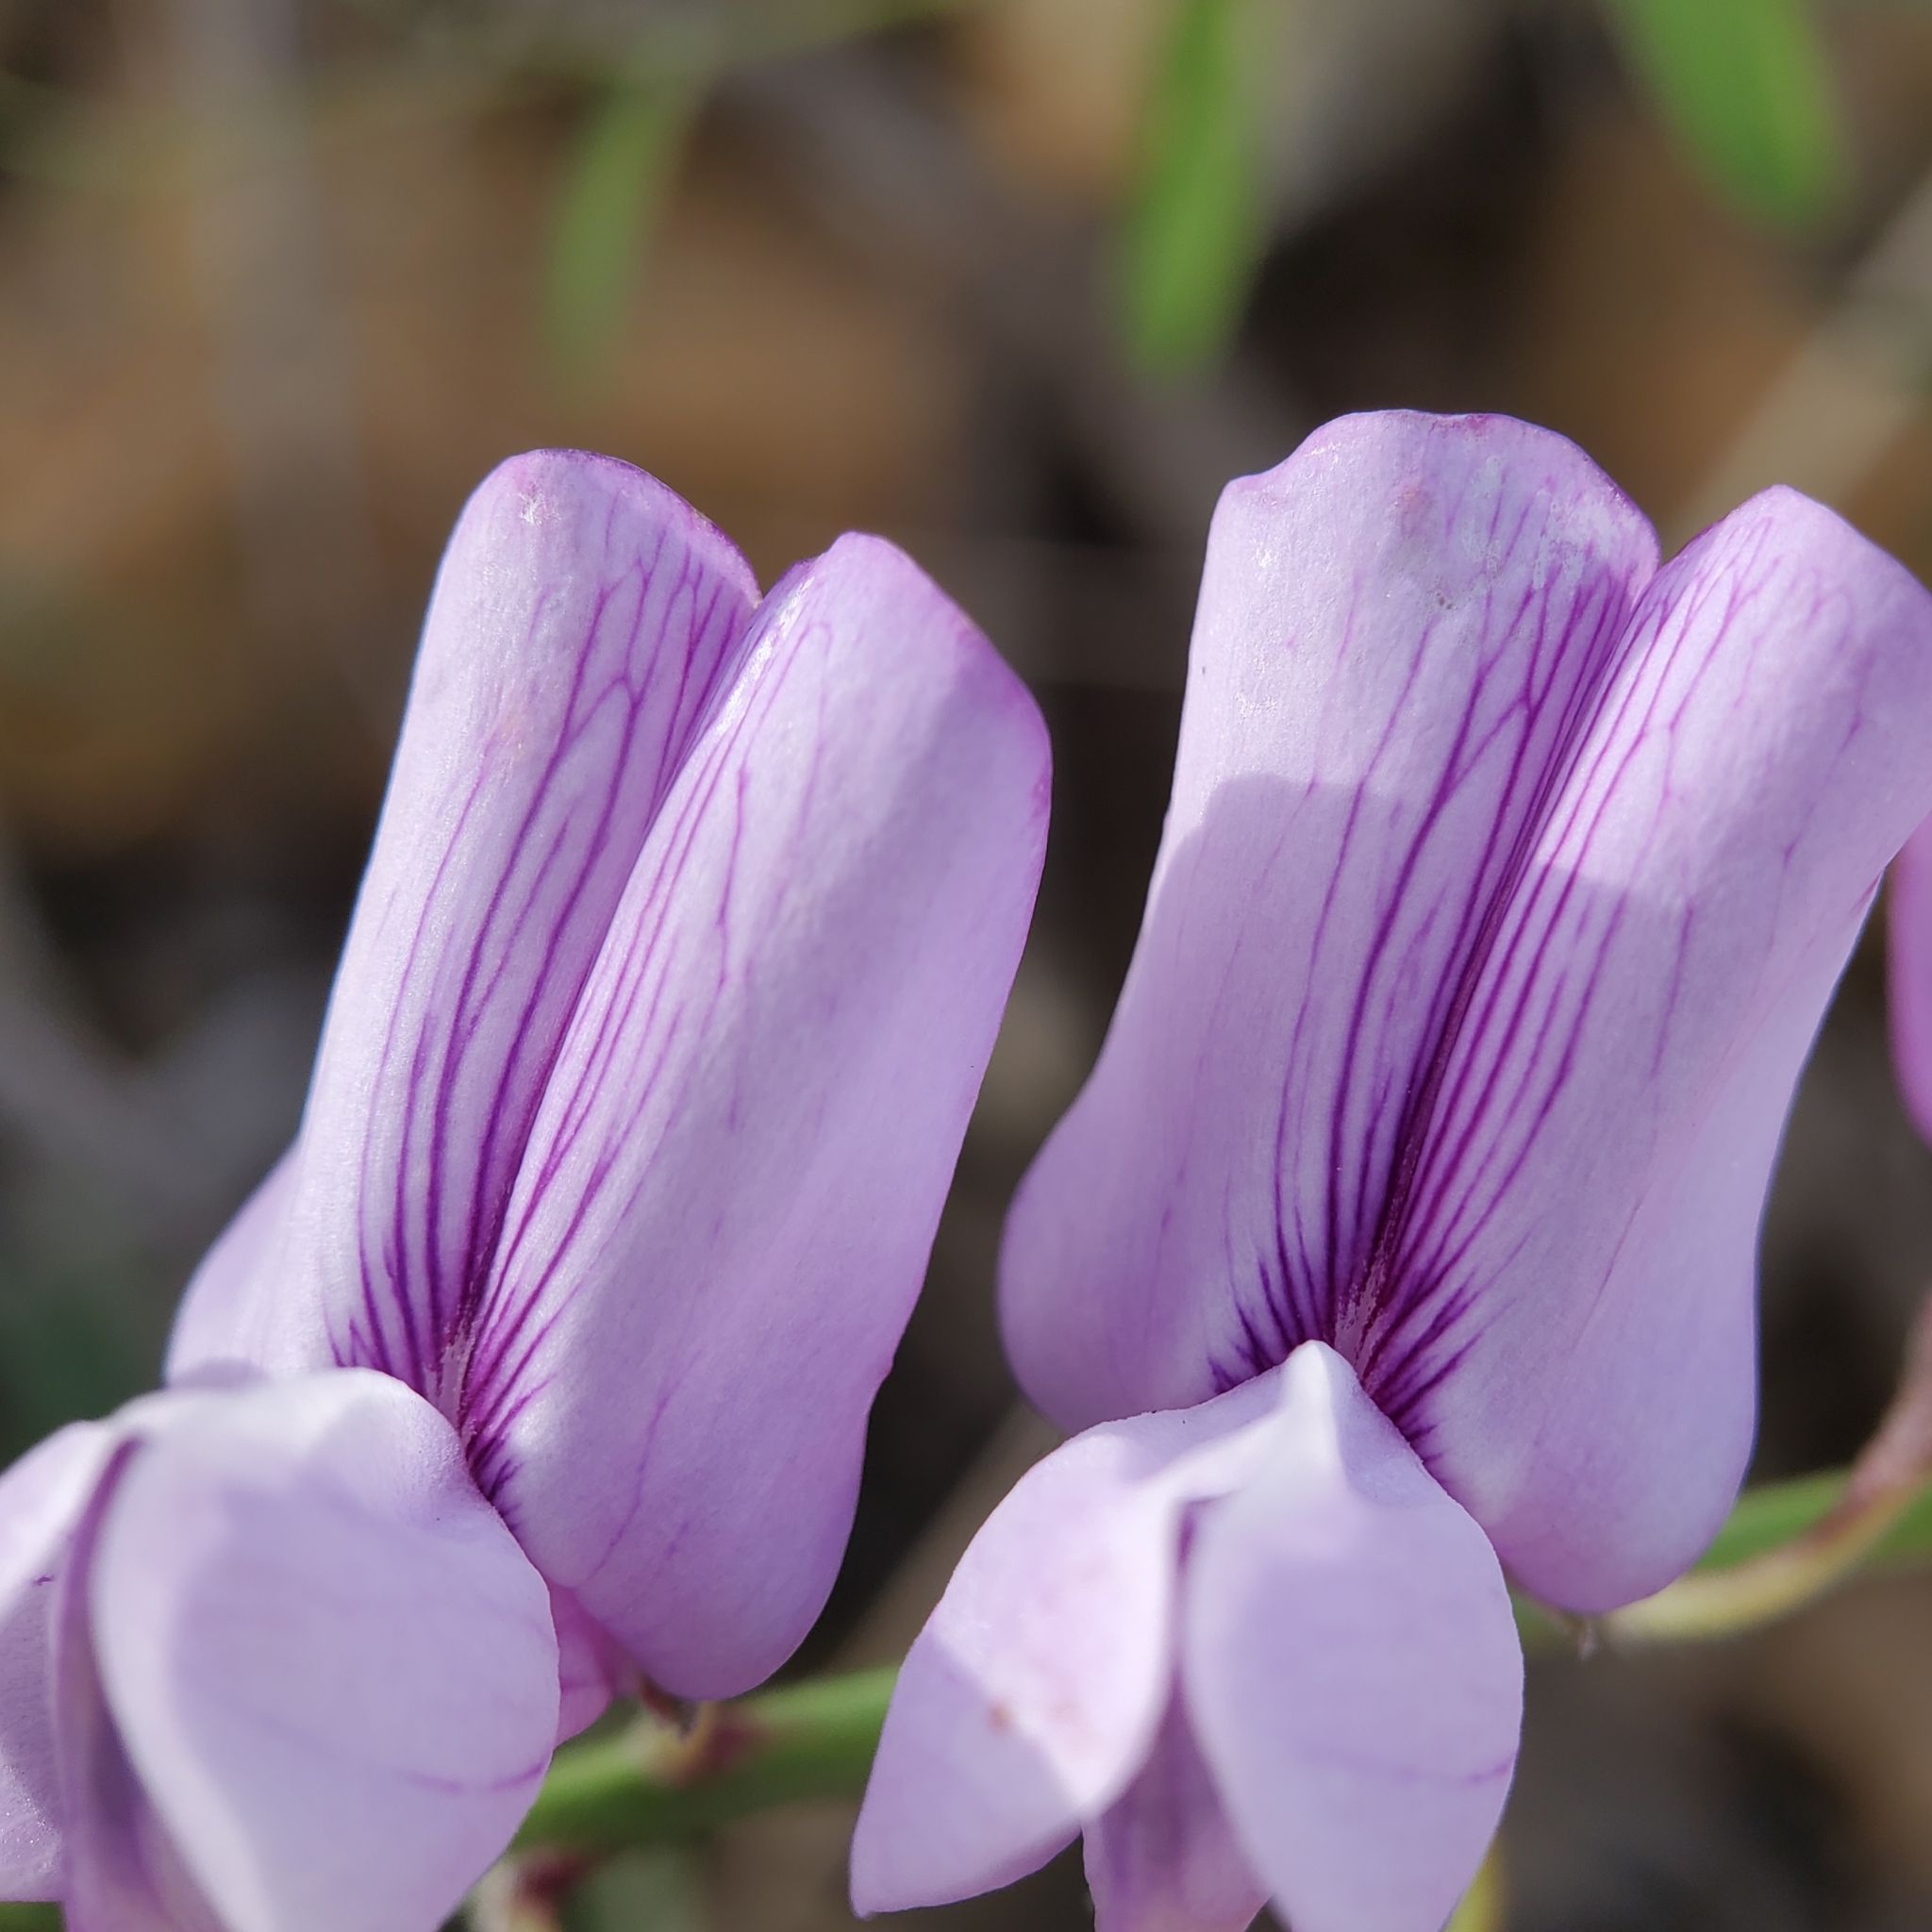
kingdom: Plantae
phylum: Tracheophyta
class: Magnoliopsida
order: Fabales
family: Fabaceae
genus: Lathyrus
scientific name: Lathyrus vestitus
